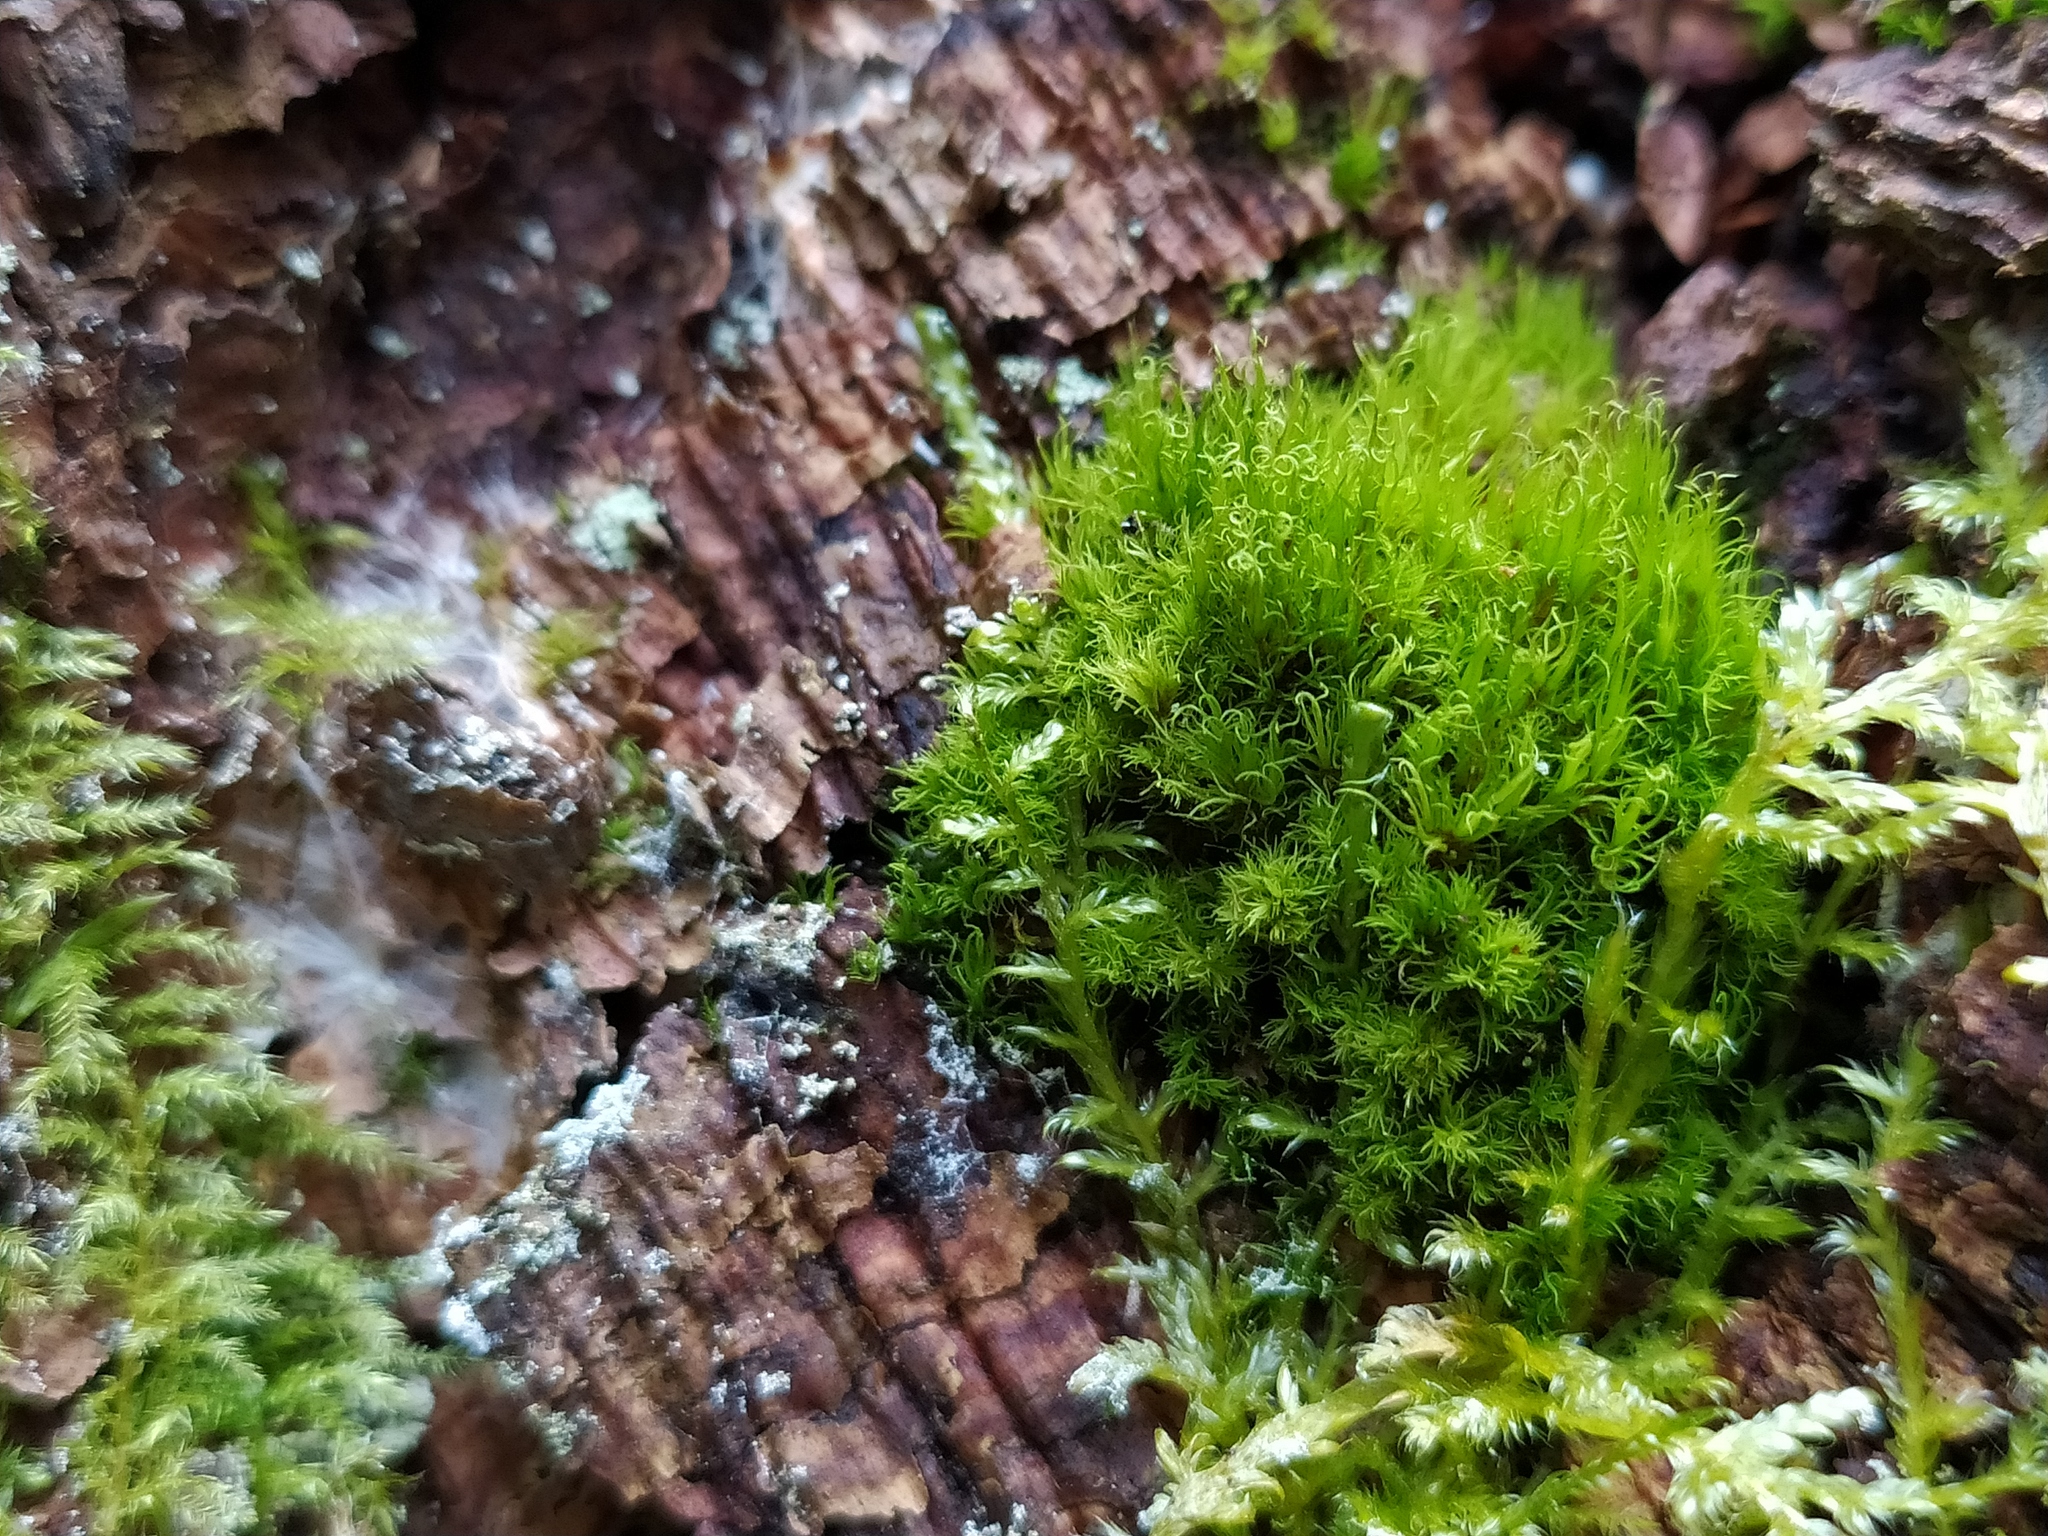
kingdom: Plantae
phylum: Bryophyta
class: Bryopsida
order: Dicranales
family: Dicranaceae
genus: Orthodicranum
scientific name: Orthodicranum montanum
